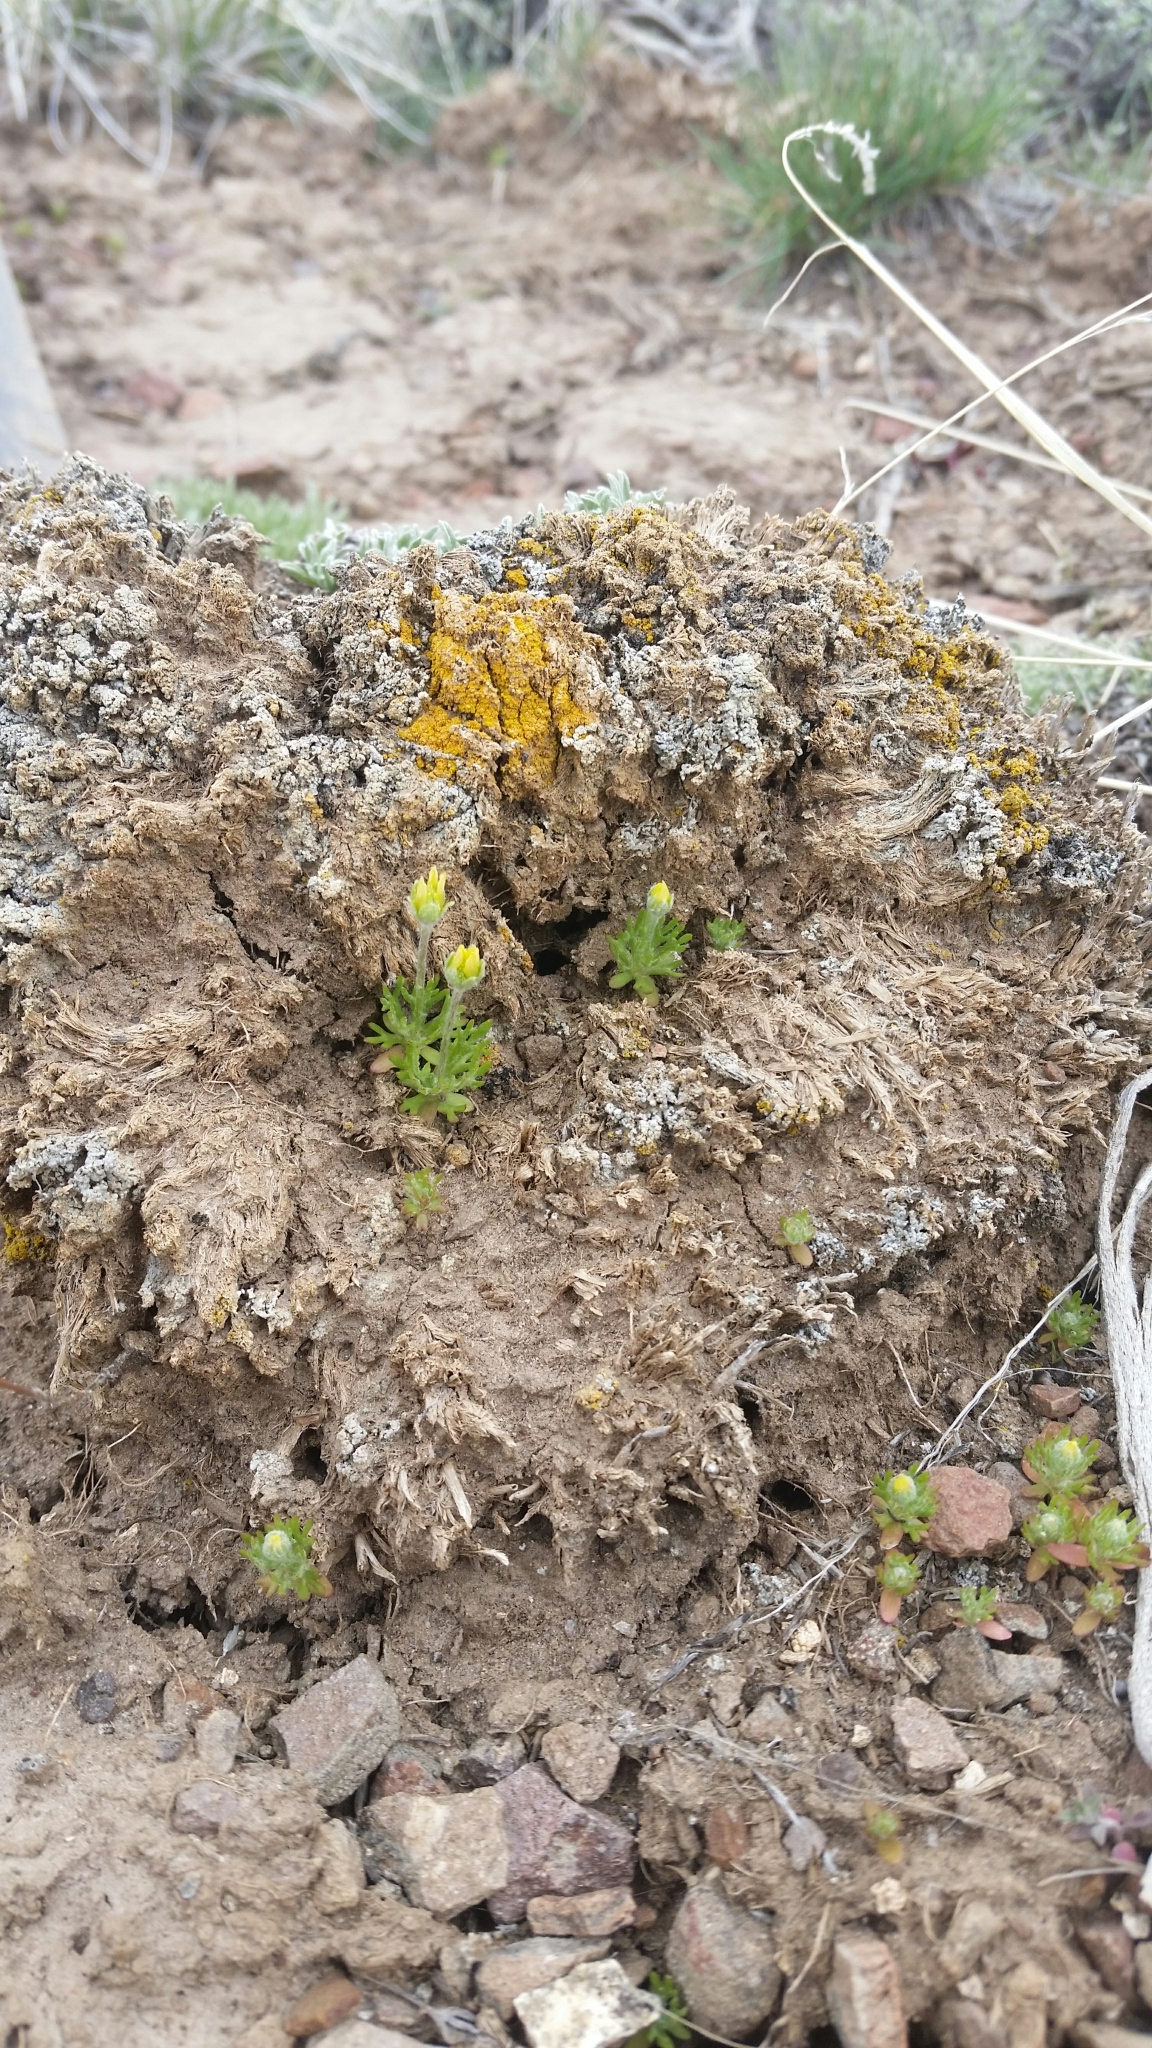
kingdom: Plantae
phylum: Tracheophyta
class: Magnoliopsida
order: Ranunculales
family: Ranunculaceae
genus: Ceratocephala
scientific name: Ceratocephala orthoceras
